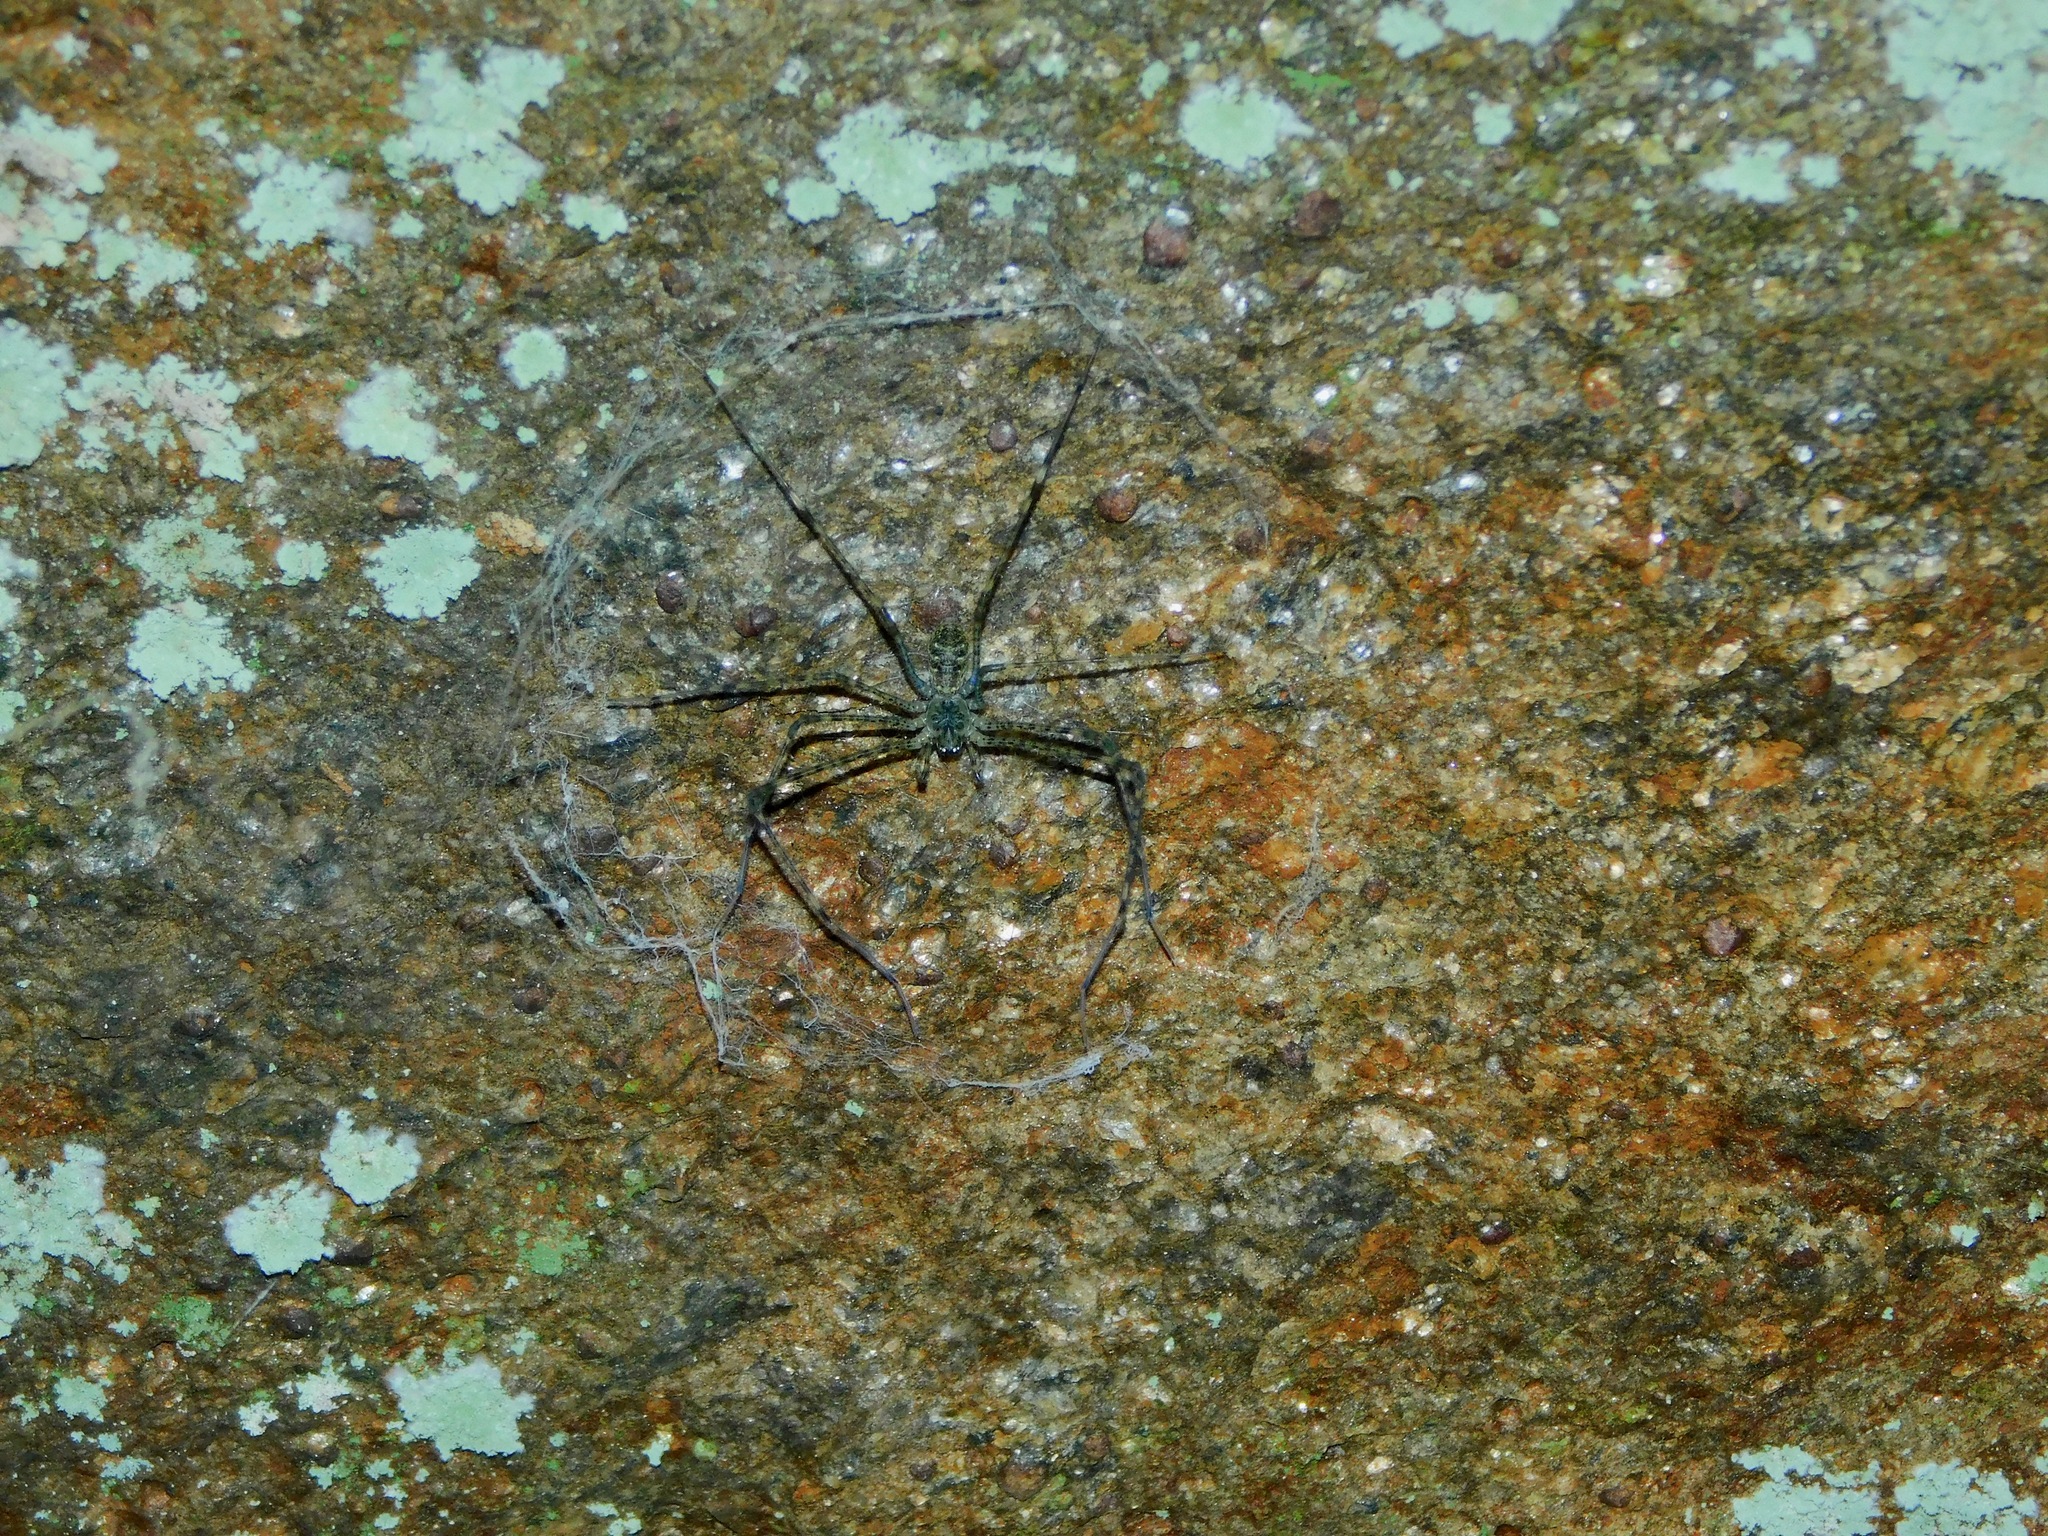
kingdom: Animalia
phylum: Arthropoda
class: Arachnida
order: Araneae
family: Hypochilidae
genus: Hypochilus
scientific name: Hypochilus pococki
